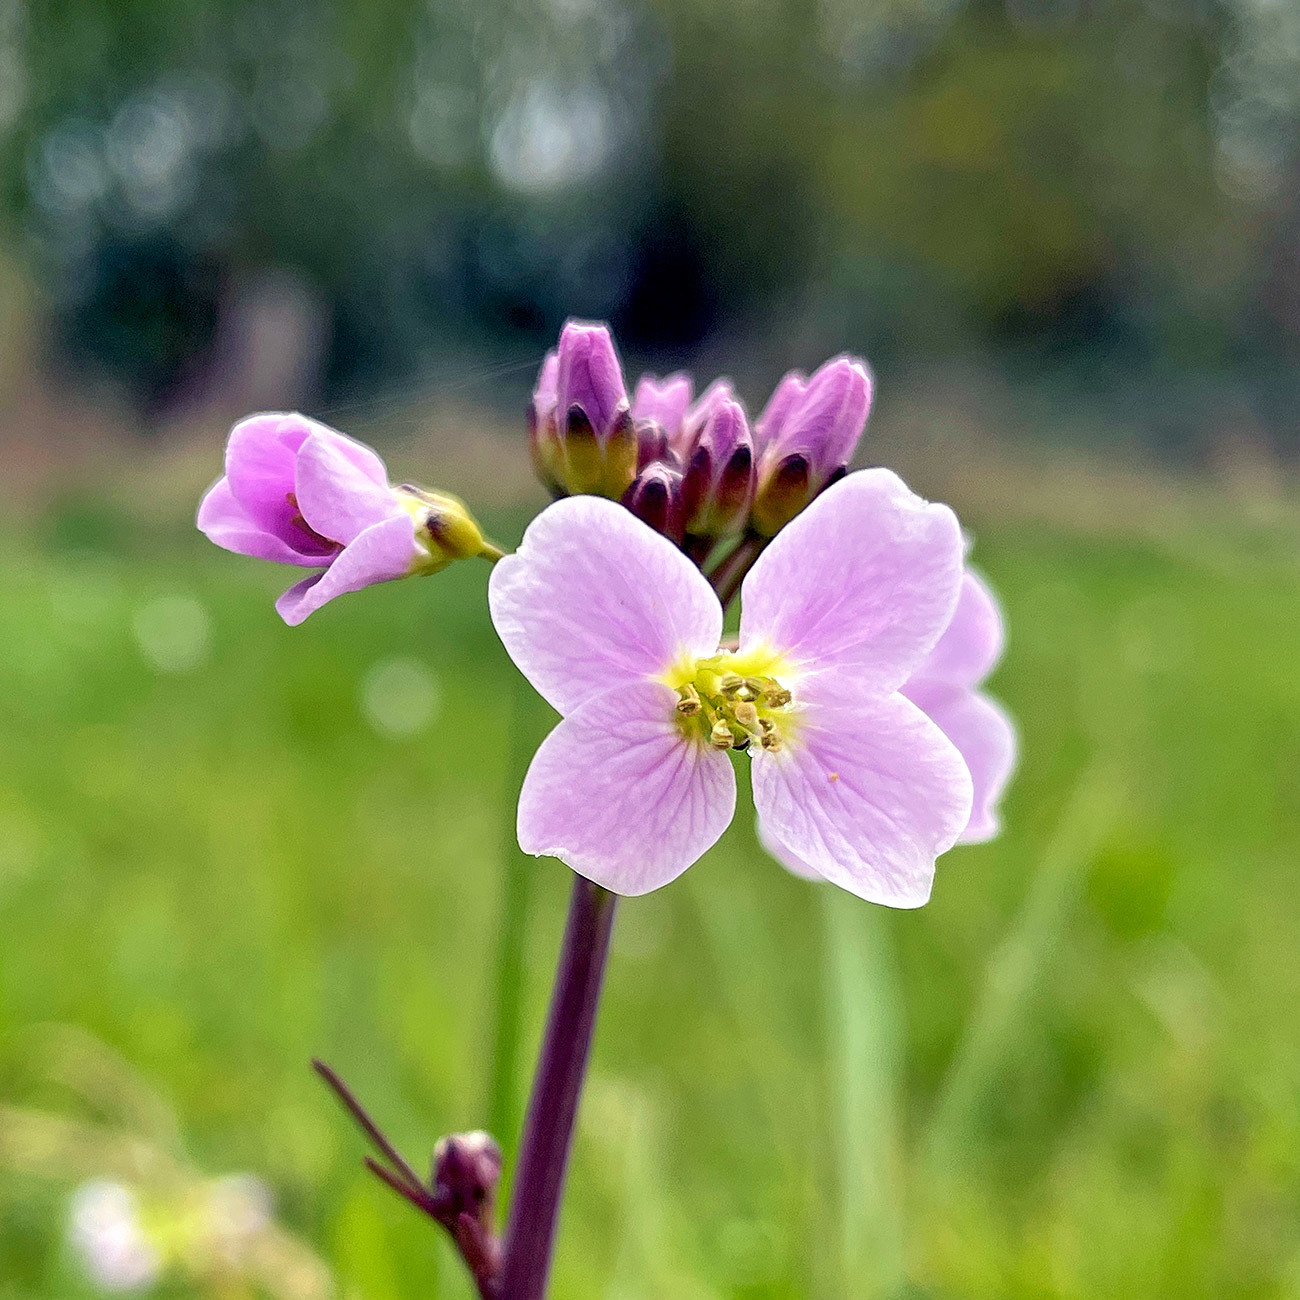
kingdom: Plantae
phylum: Tracheophyta
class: Magnoliopsida
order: Brassicales
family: Brassicaceae
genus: Cardamine
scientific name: Cardamine pratensis
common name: Cuckoo flower
